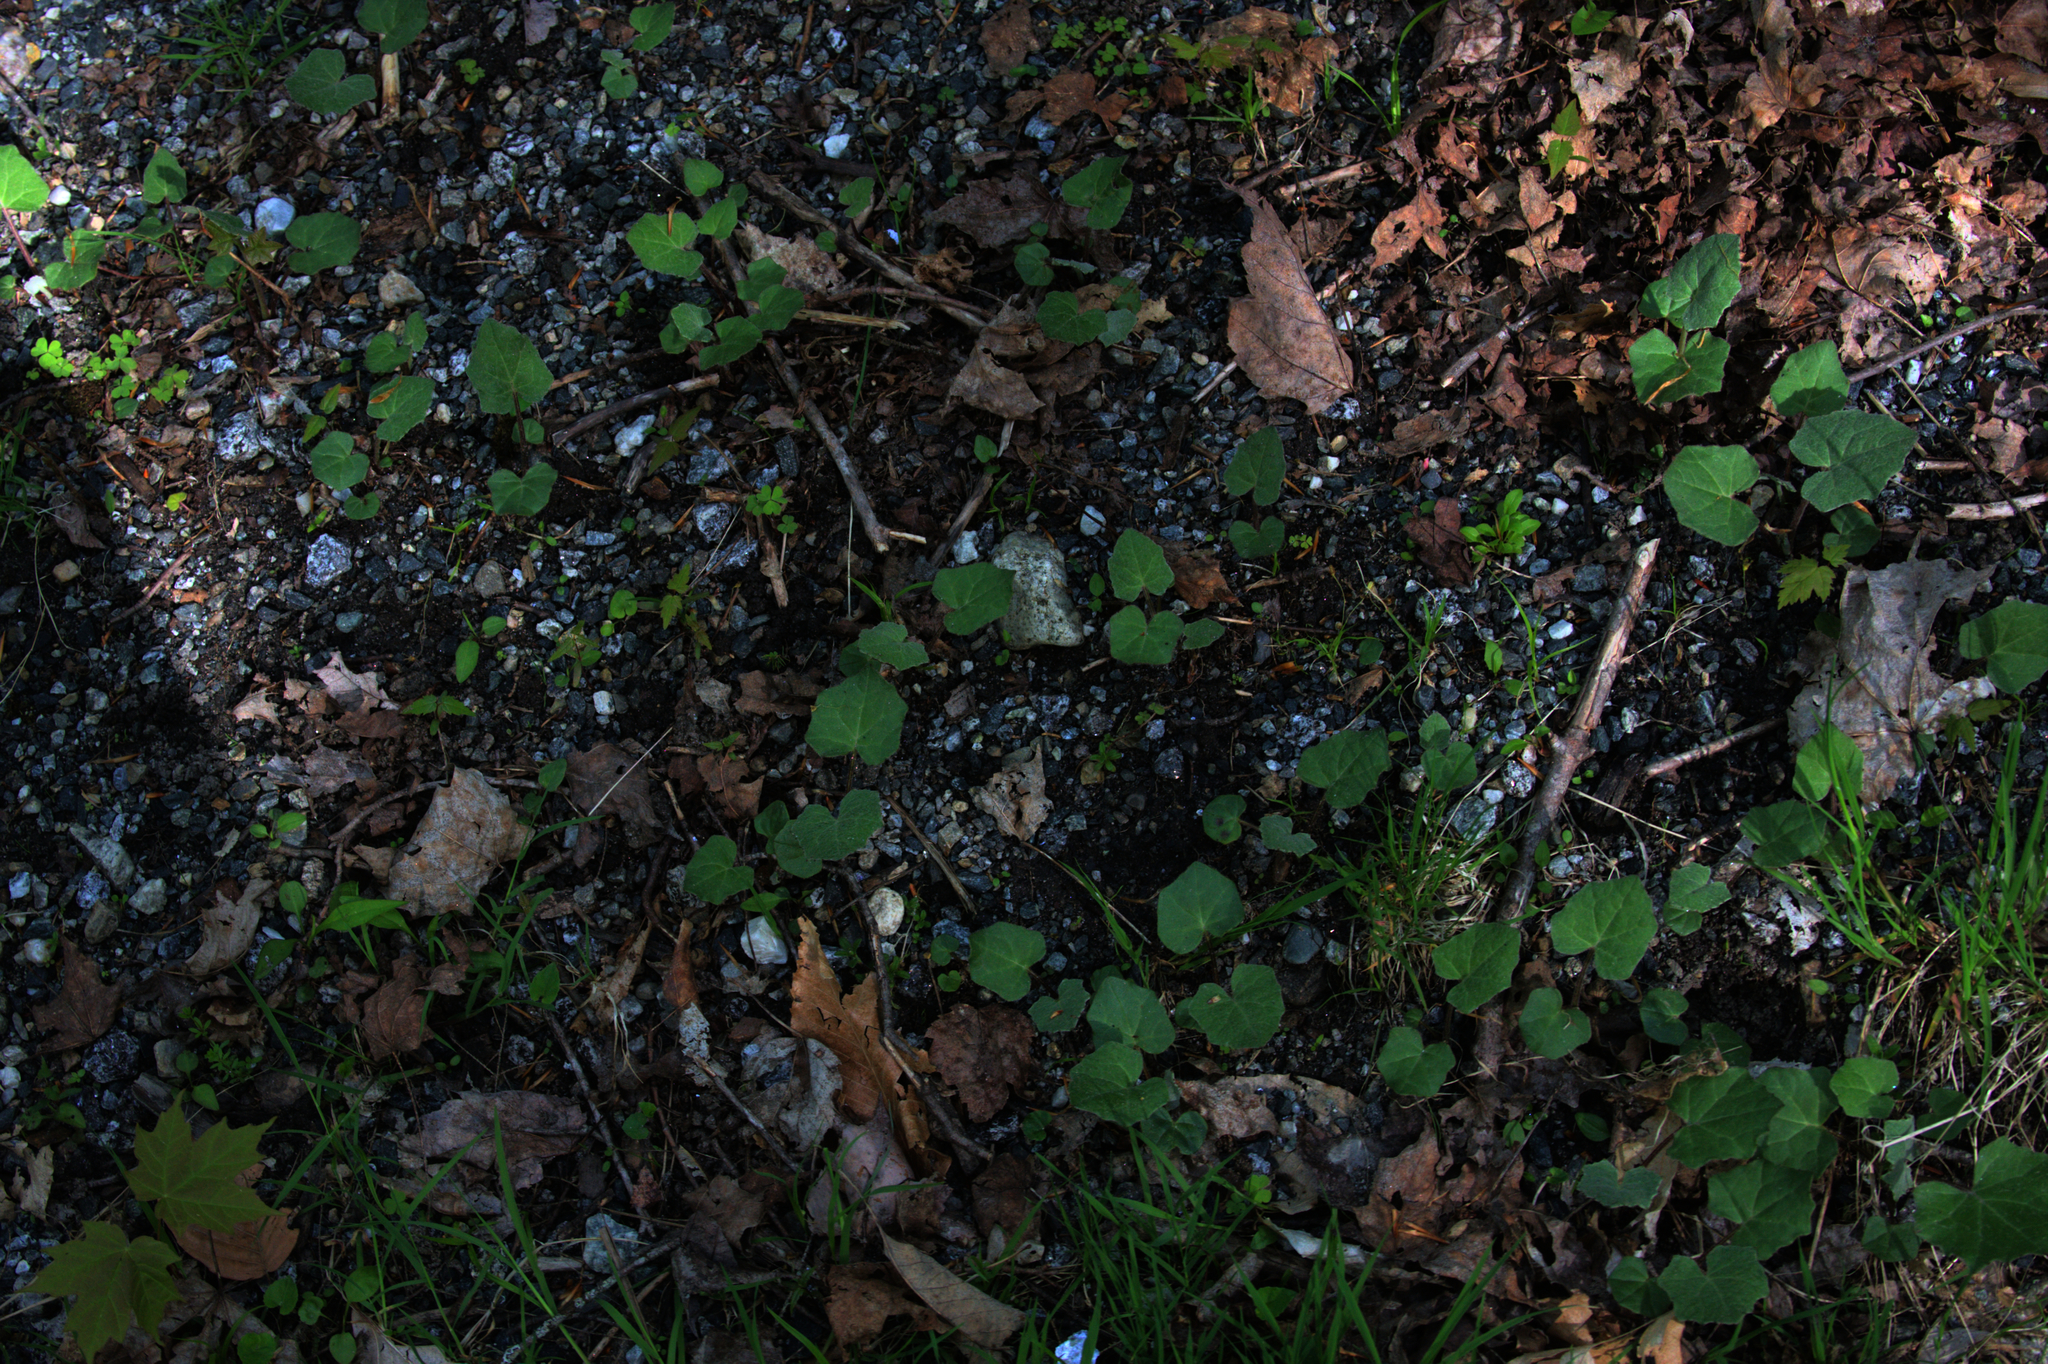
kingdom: Plantae
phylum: Tracheophyta
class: Magnoliopsida
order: Asterales
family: Asteraceae
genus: Tussilago
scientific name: Tussilago farfara
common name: Coltsfoot
